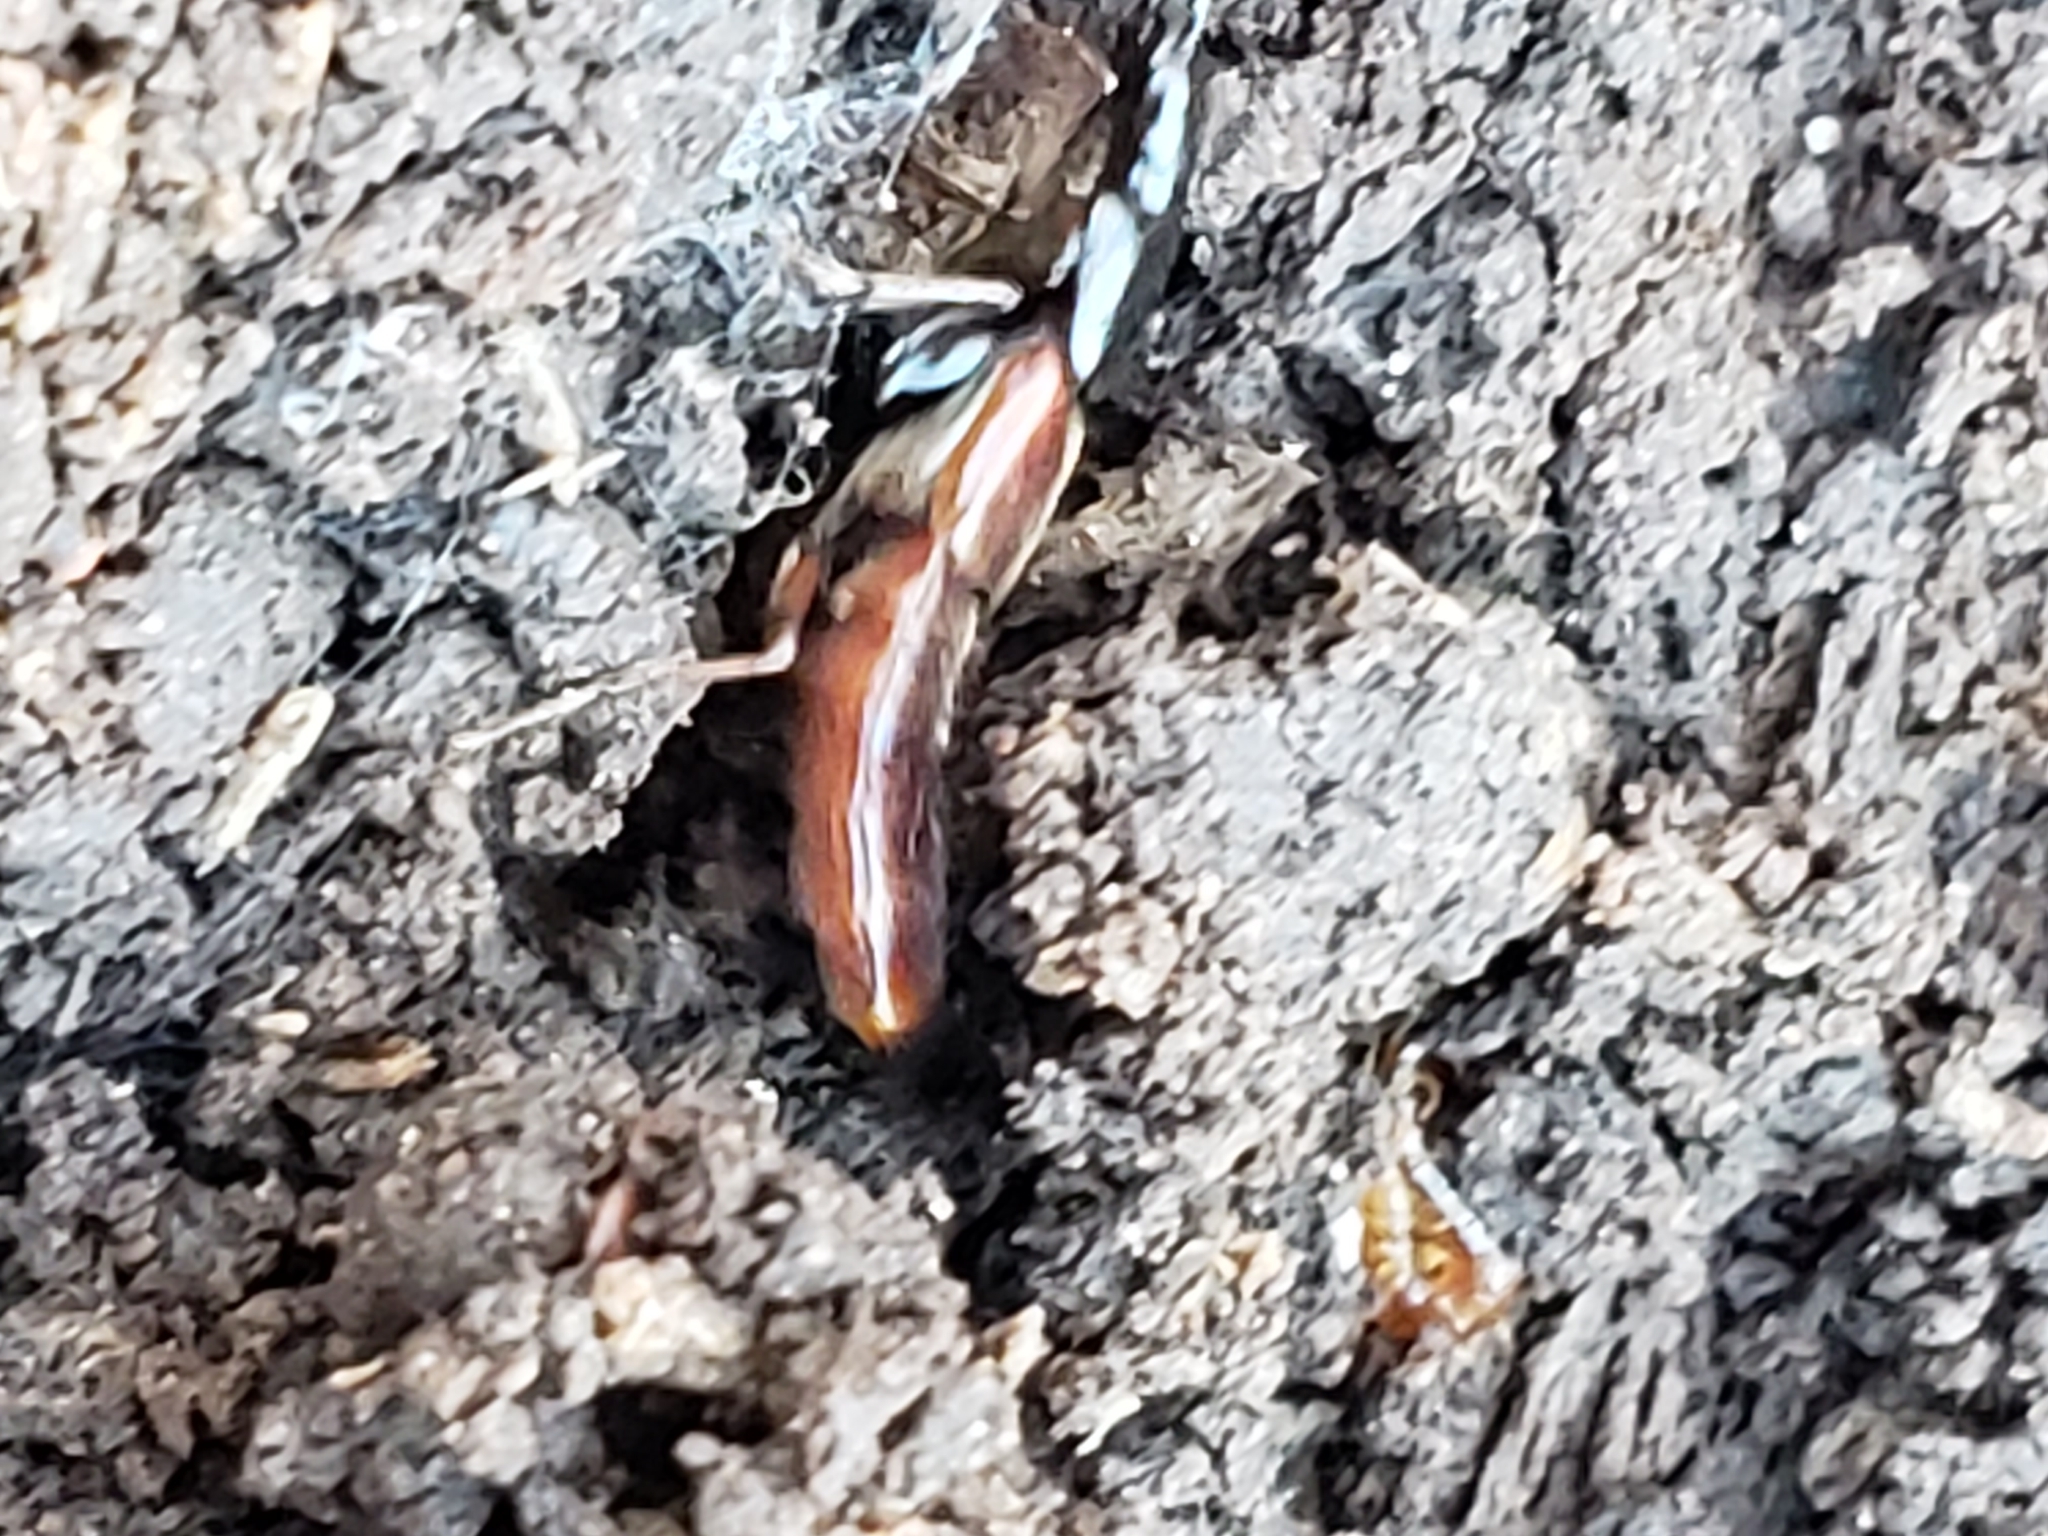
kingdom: Animalia
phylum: Arthropoda
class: Insecta
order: Coleoptera
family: Staphylinidae
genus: Hesperus
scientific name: Hesperus baltimorensis
